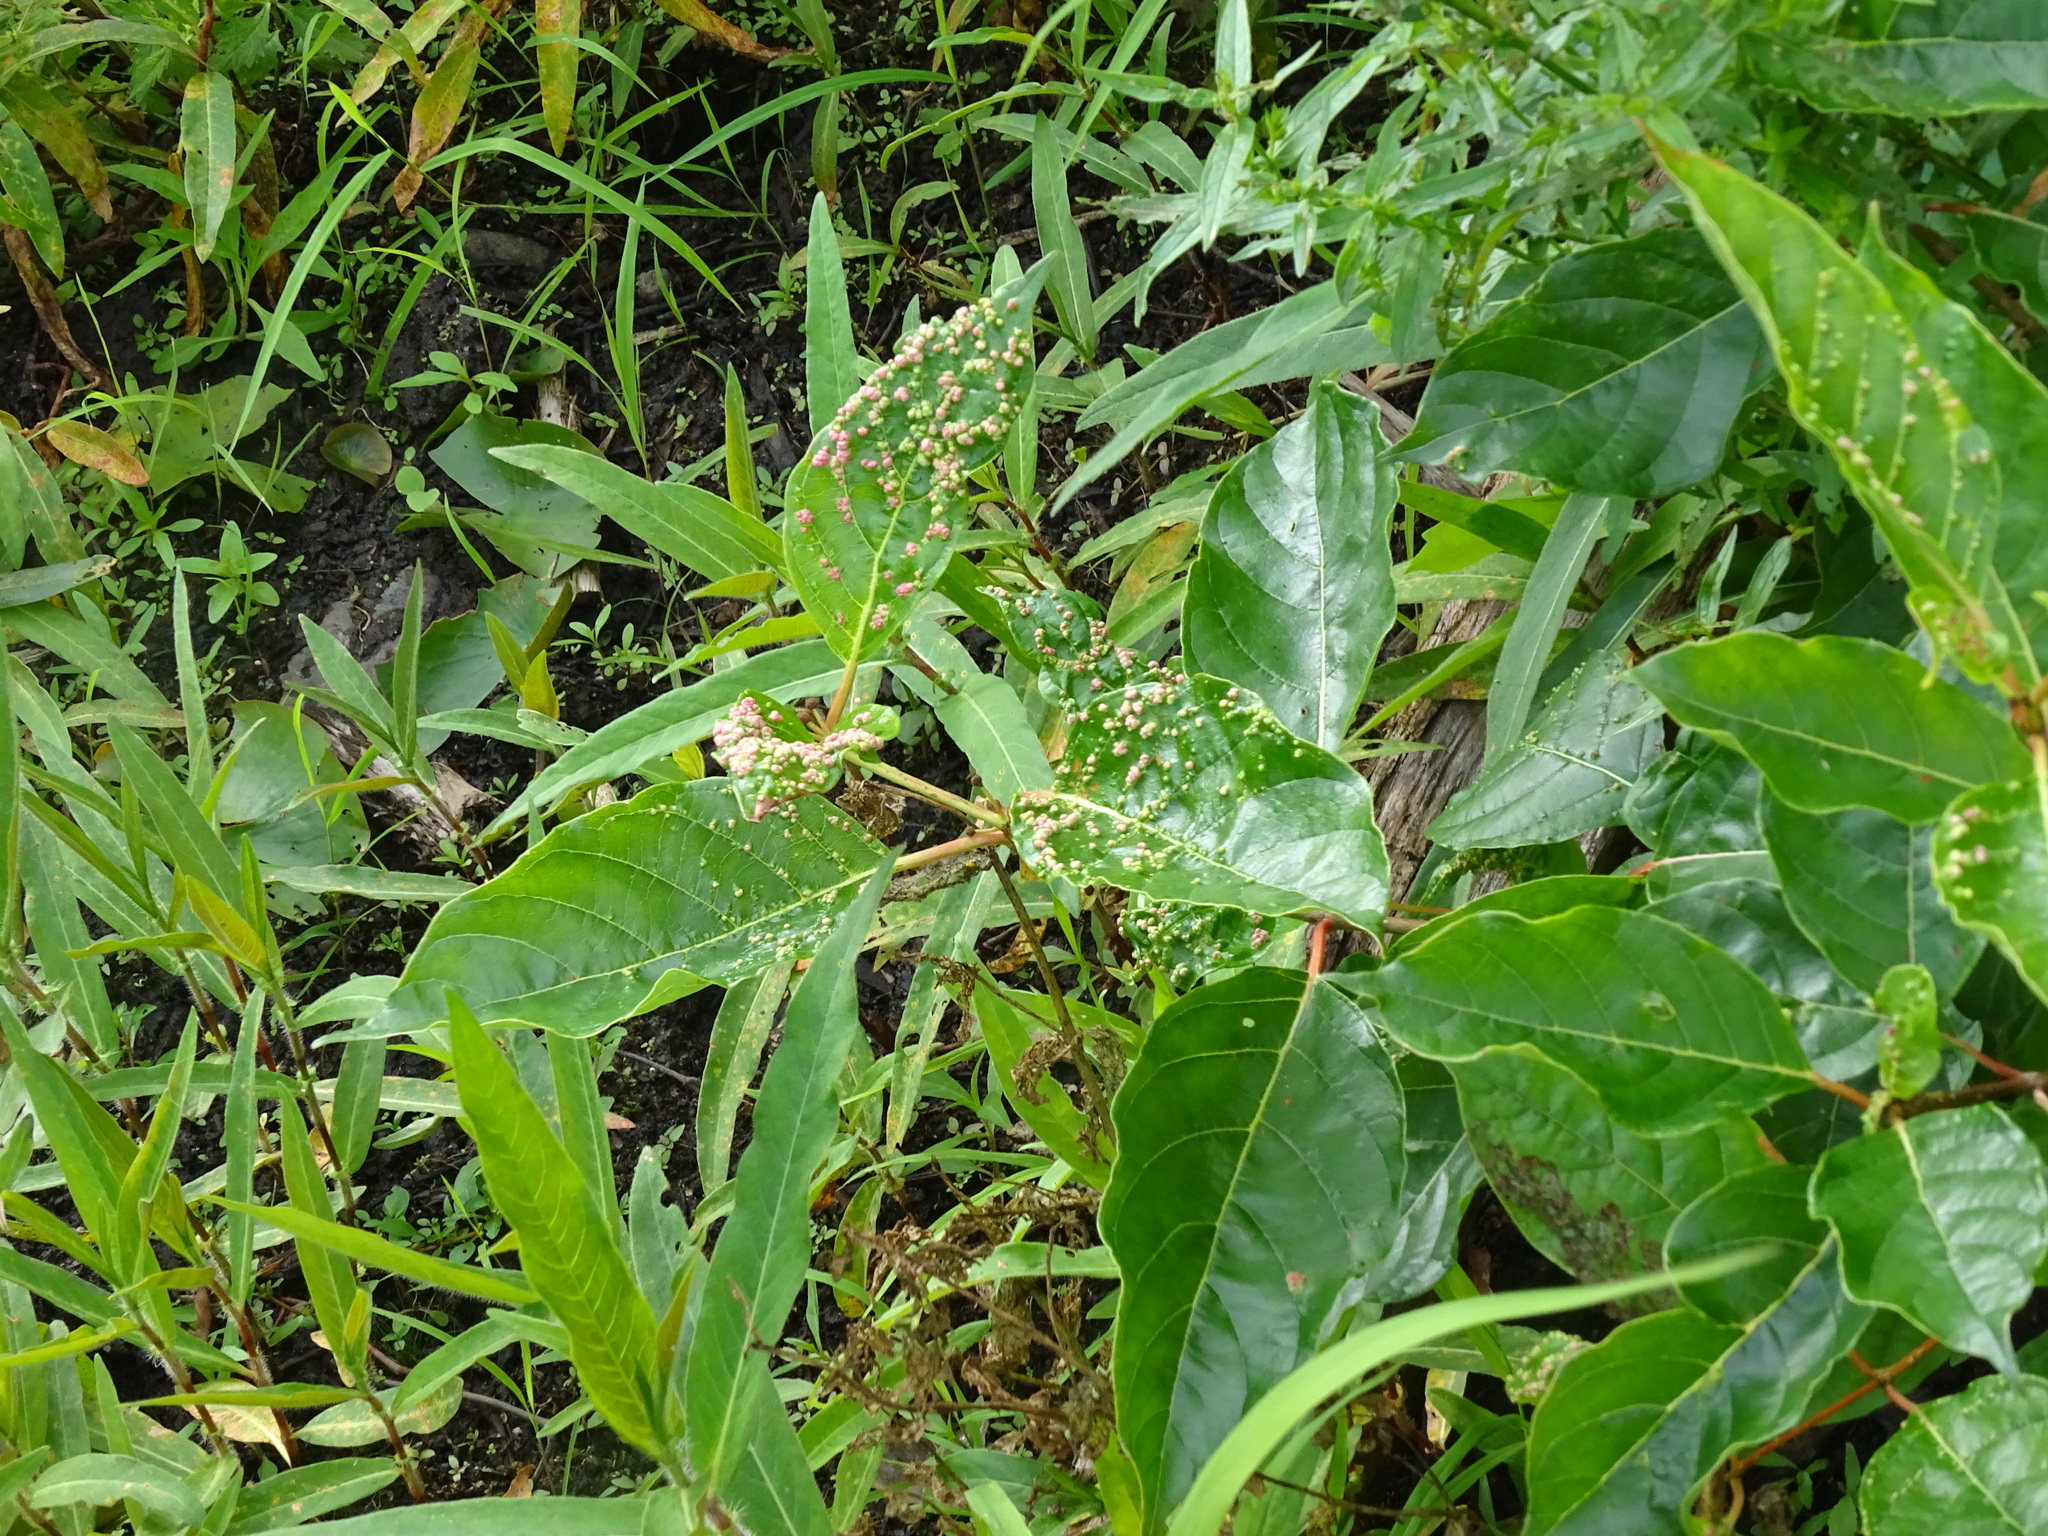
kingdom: Plantae
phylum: Tracheophyta
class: Magnoliopsida
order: Gentianales
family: Rubiaceae
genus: Cephalanthus
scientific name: Cephalanthus occidentalis
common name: Button-willow
